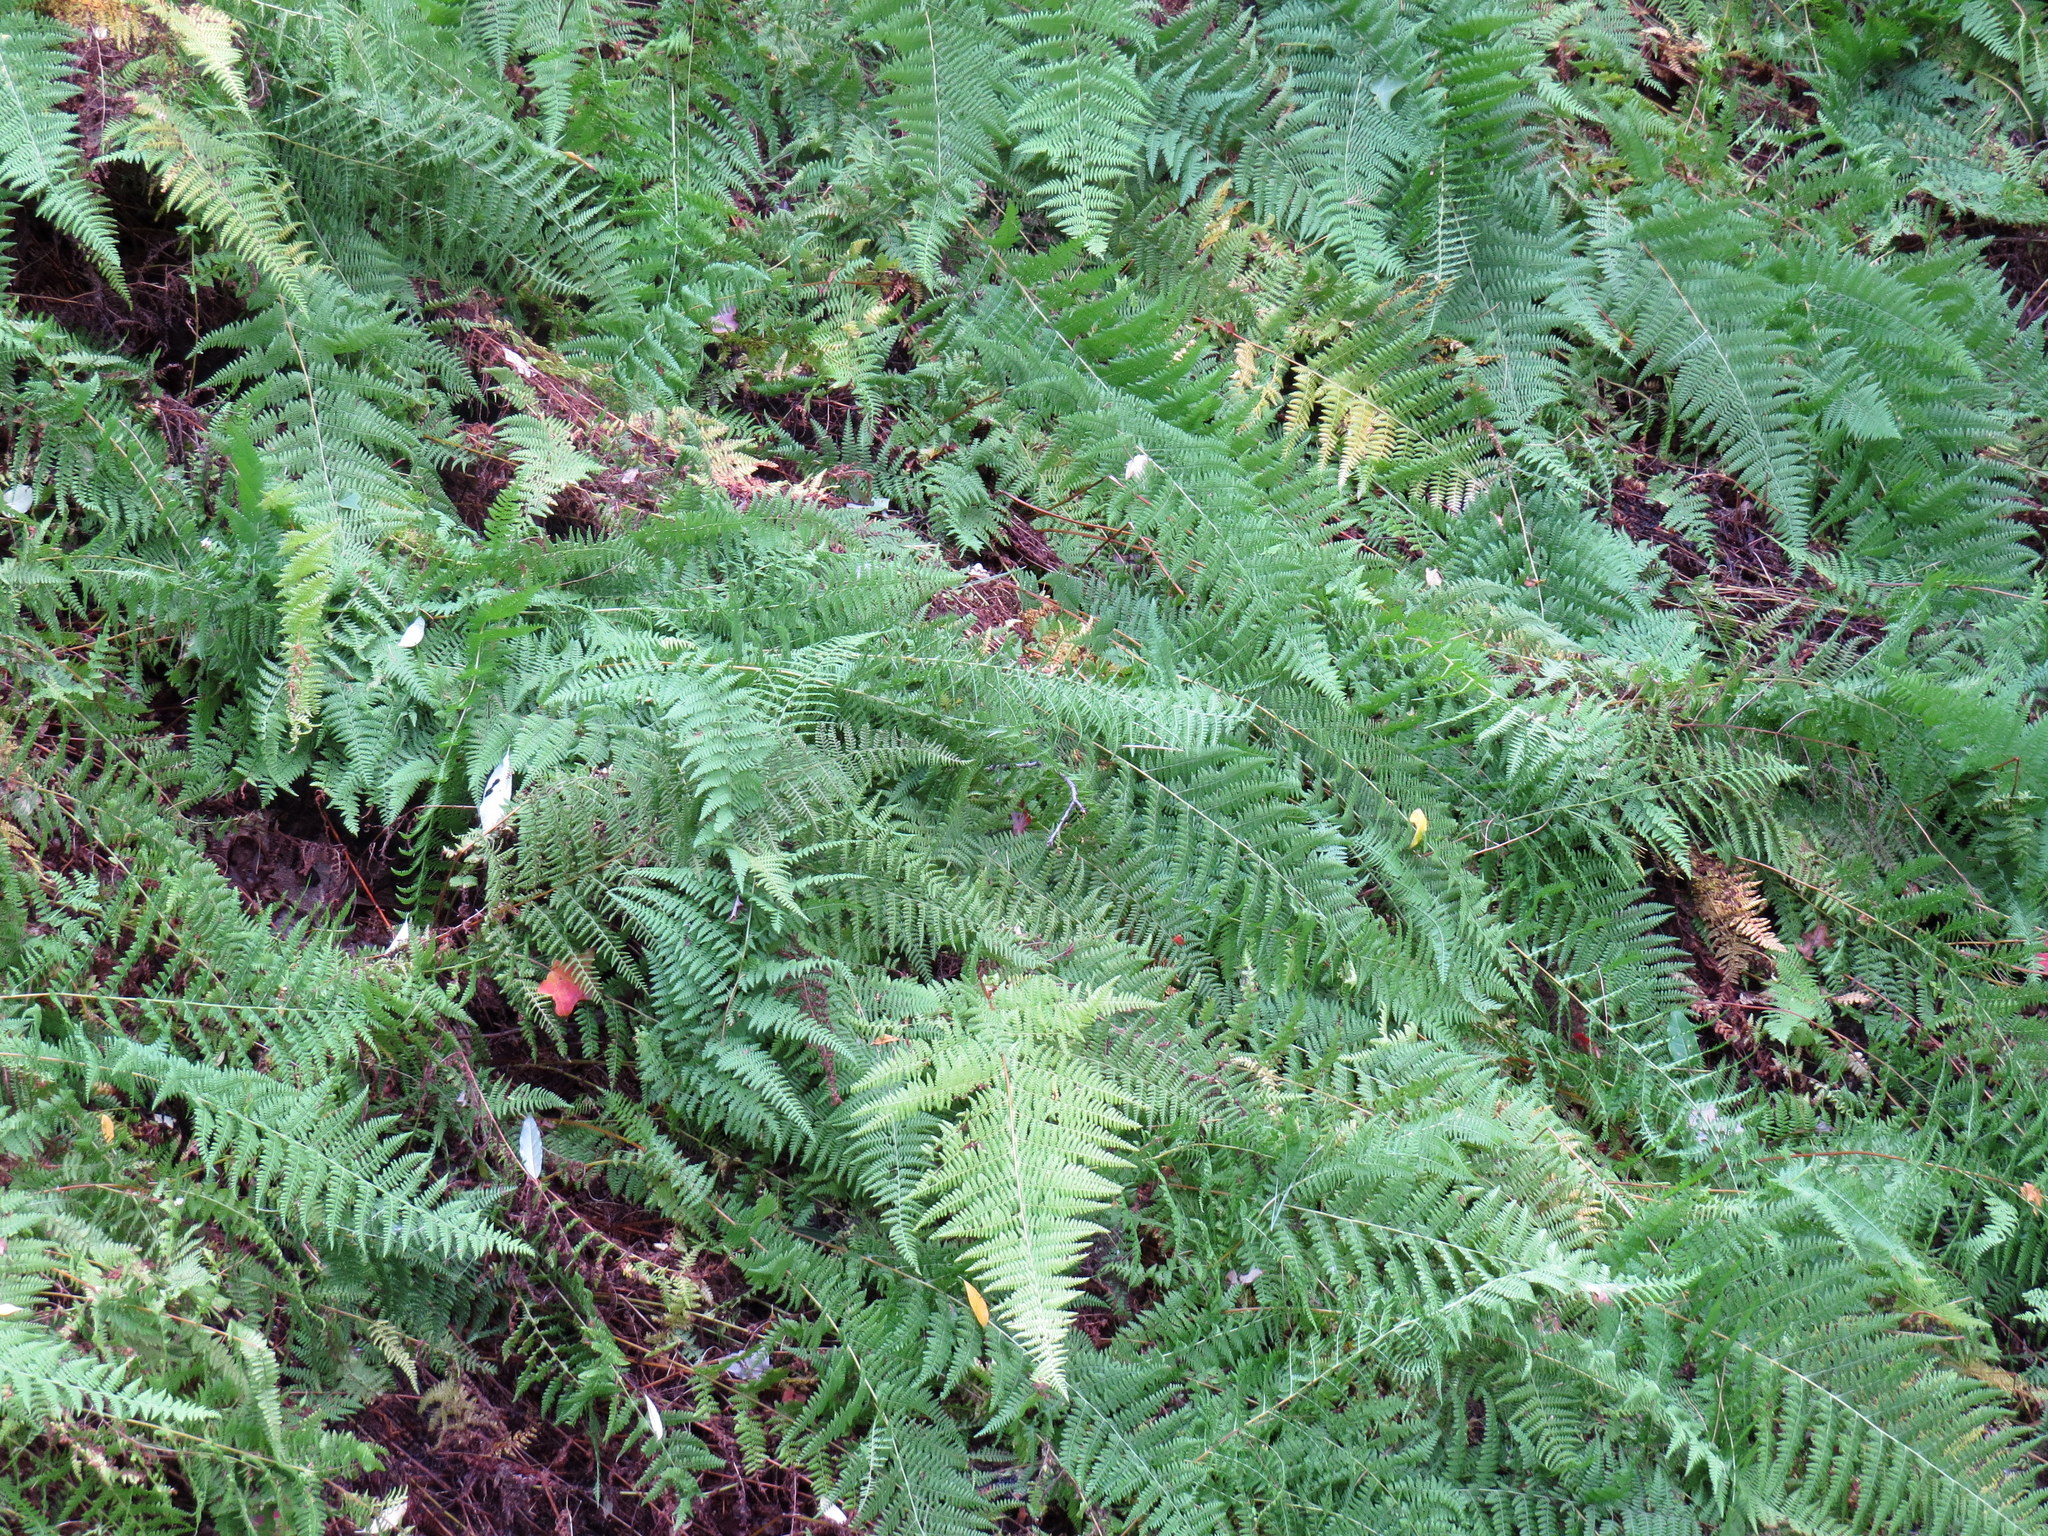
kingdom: Plantae
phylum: Tracheophyta
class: Polypodiopsida
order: Polypodiales
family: Dennstaedtiaceae
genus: Sitobolium
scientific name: Sitobolium punctilobum
